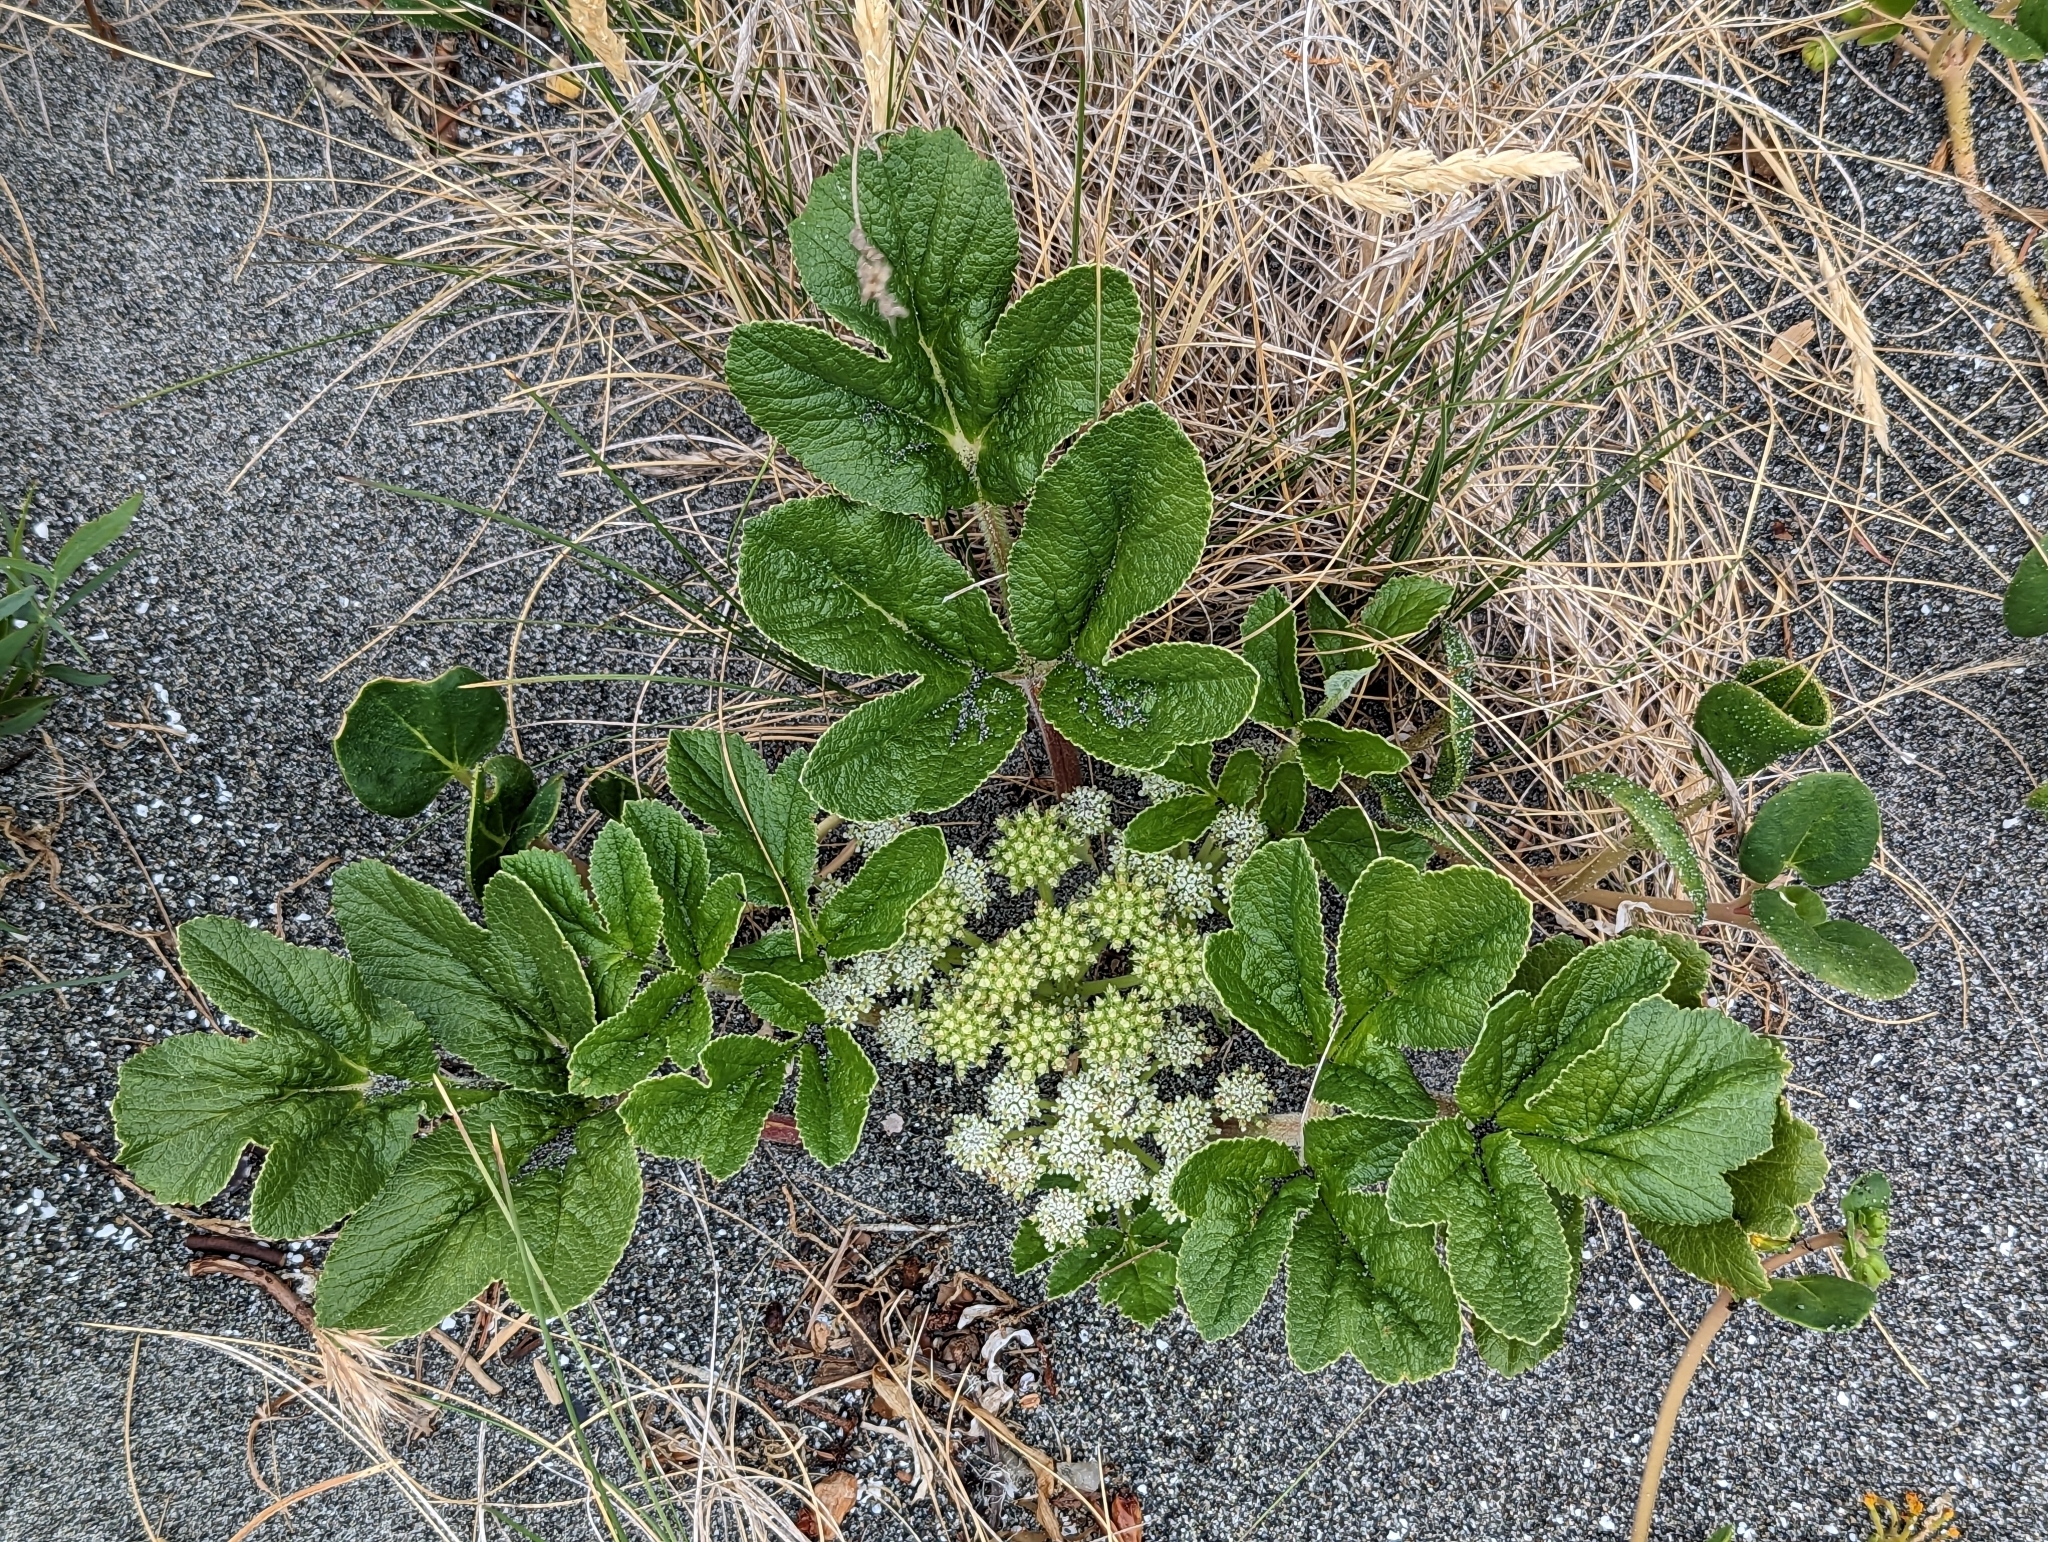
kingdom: Plantae
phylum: Tracheophyta
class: Magnoliopsida
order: Apiales
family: Apiaceae
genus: Angelica
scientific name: Angelica leiocarpa
